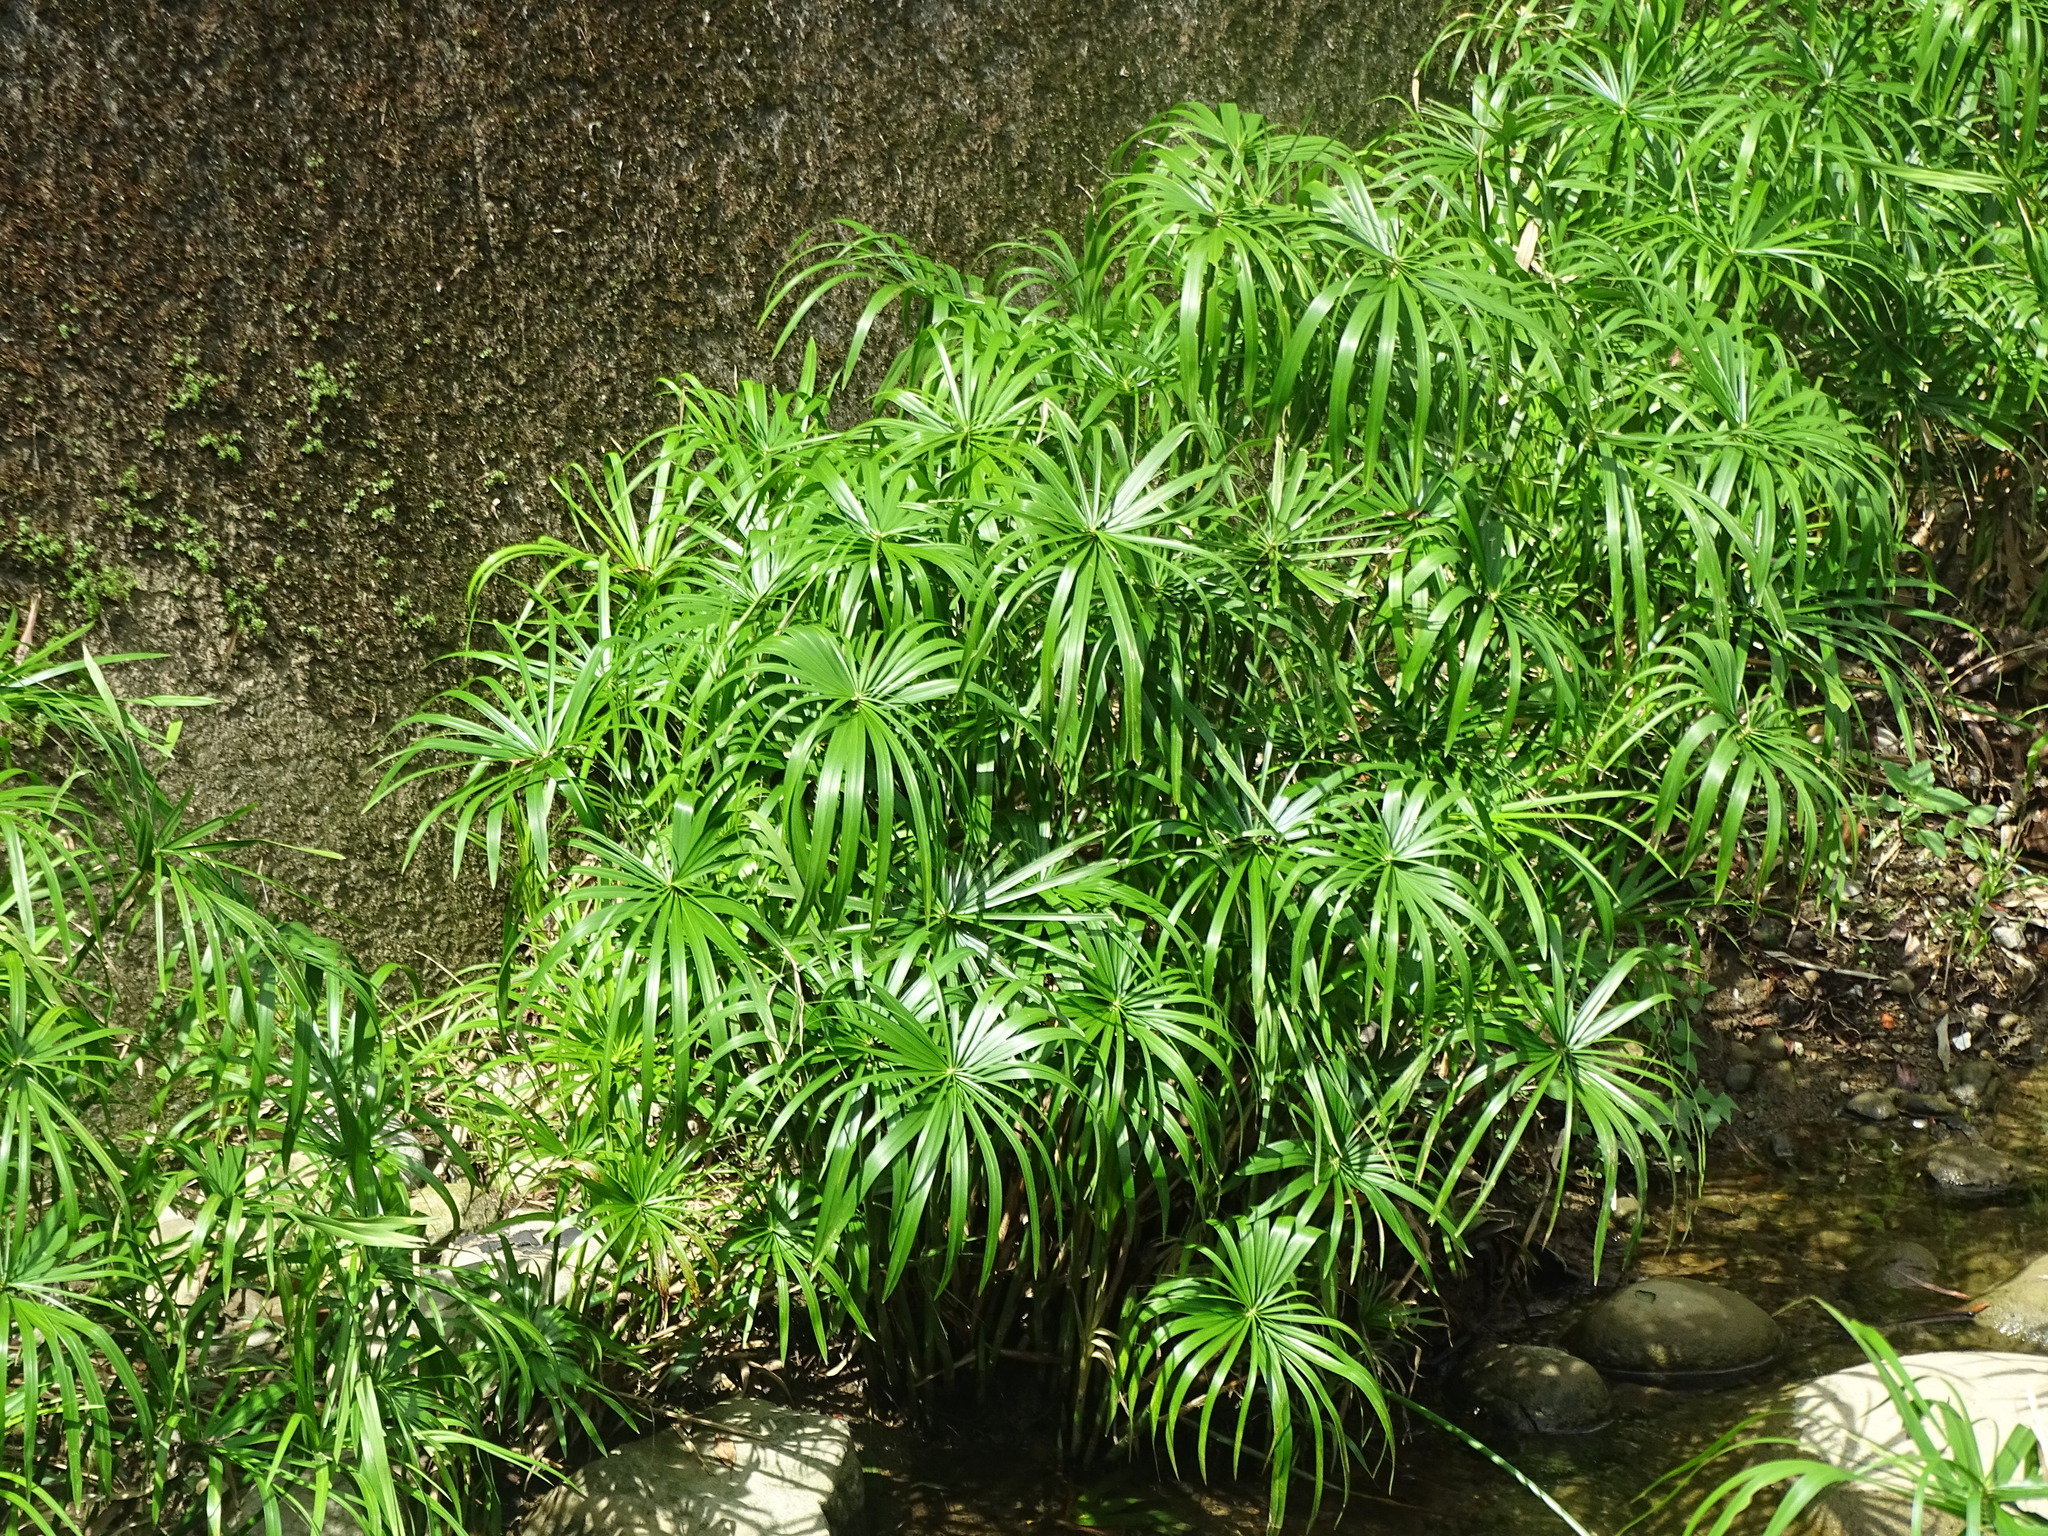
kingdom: Plantae
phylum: Tracheophyta
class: Liliopsida
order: Poales
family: Cyperaceae
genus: Cyperus
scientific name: Cyperus alternifolius
